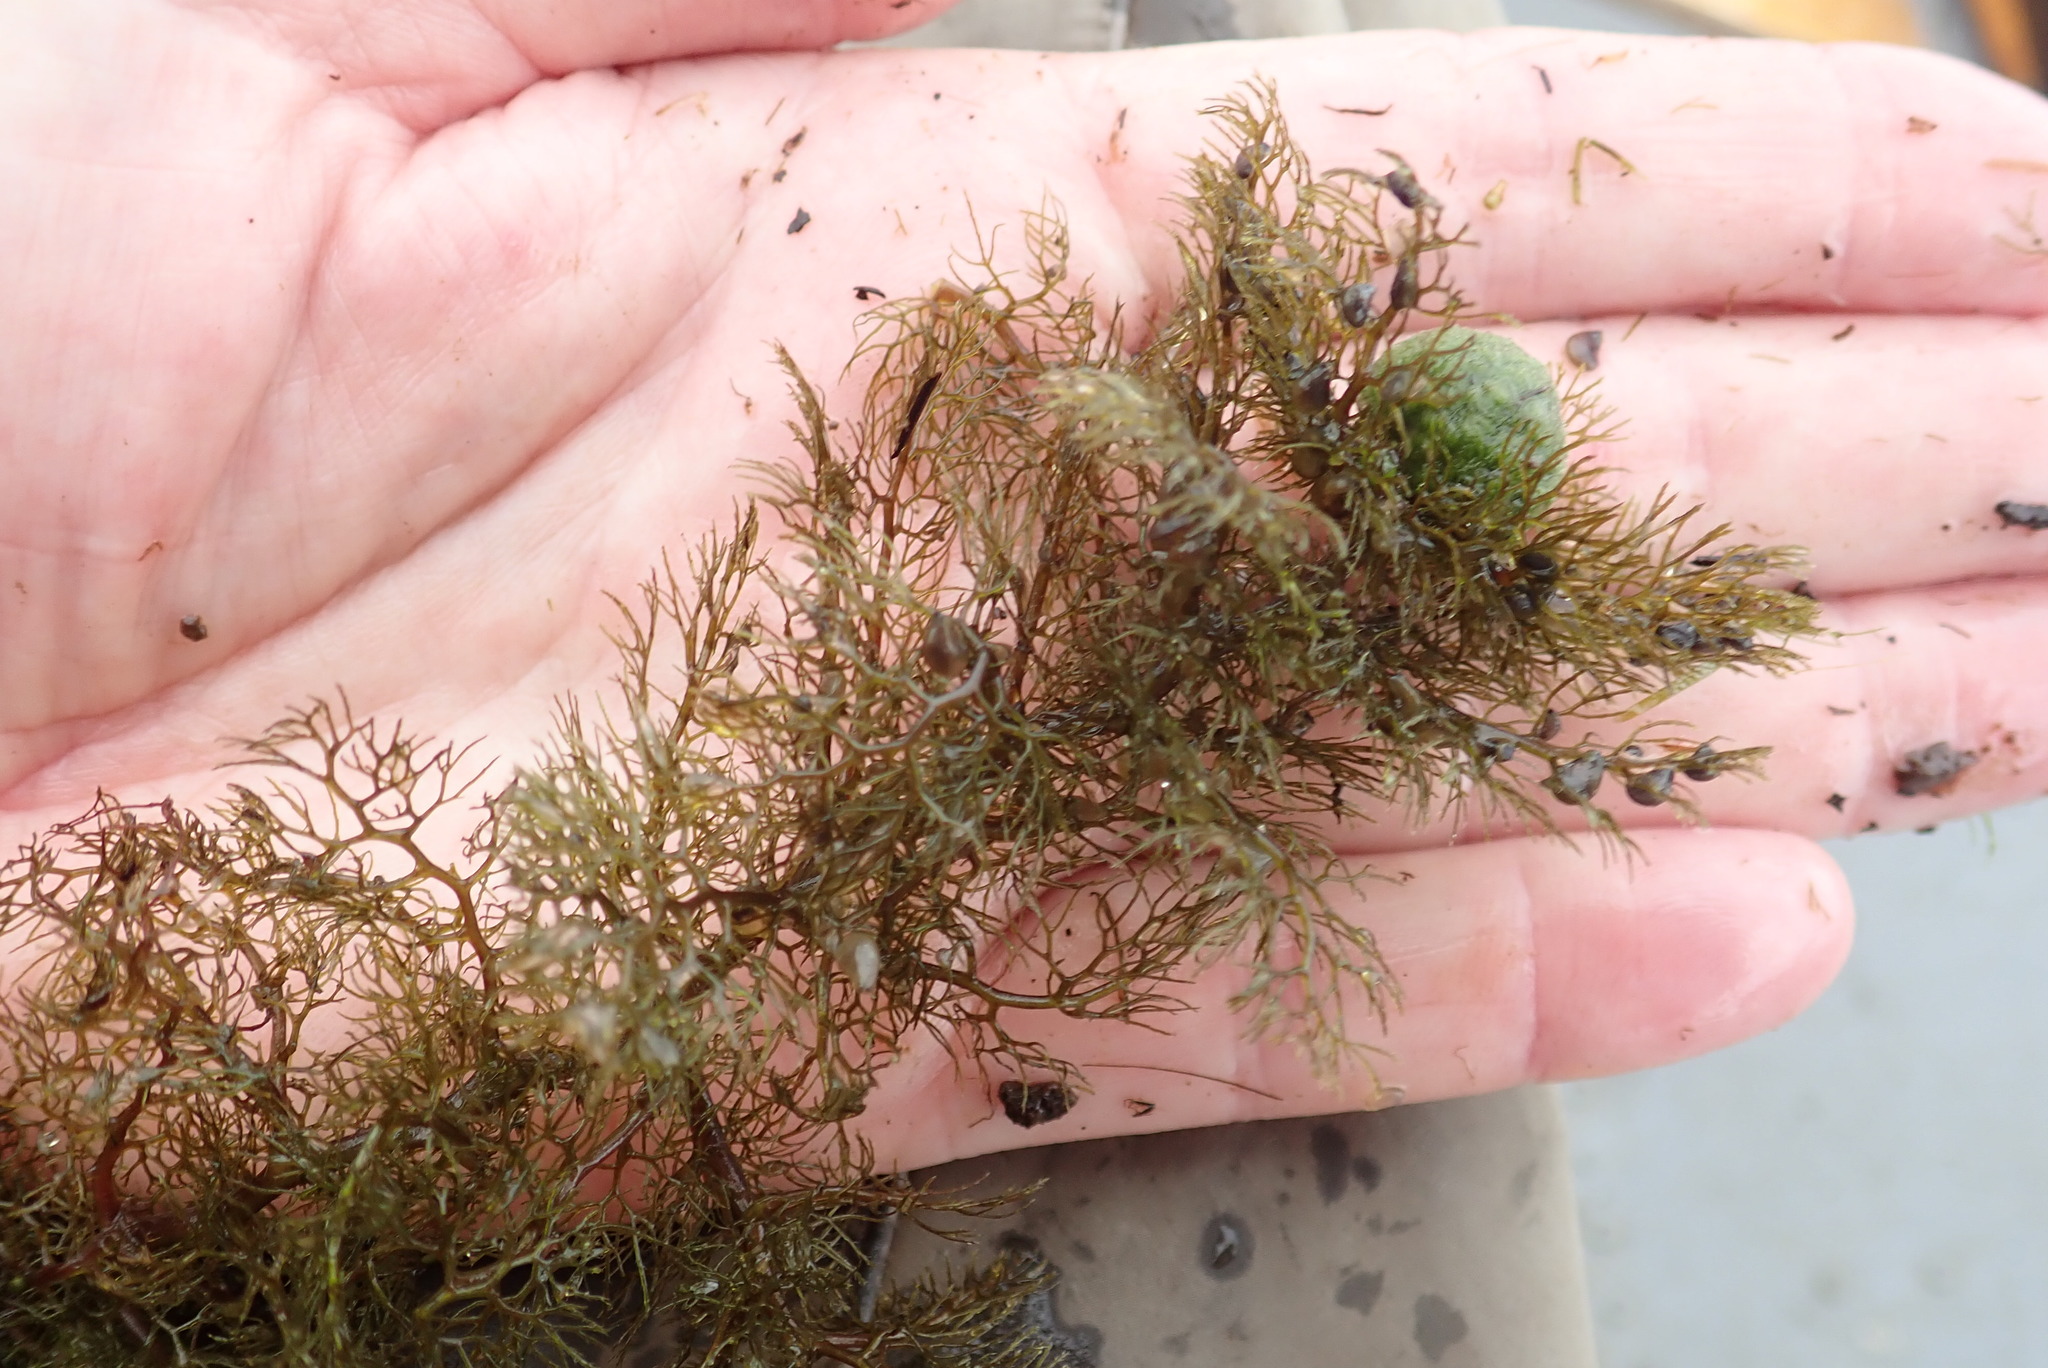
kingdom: Plantae
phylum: Tracheophyta
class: Magnoliopsida
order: Lamiales
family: Lentibulariaceae
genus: Utricularia
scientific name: Utricularia macrorhiza
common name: Common bladderwort
